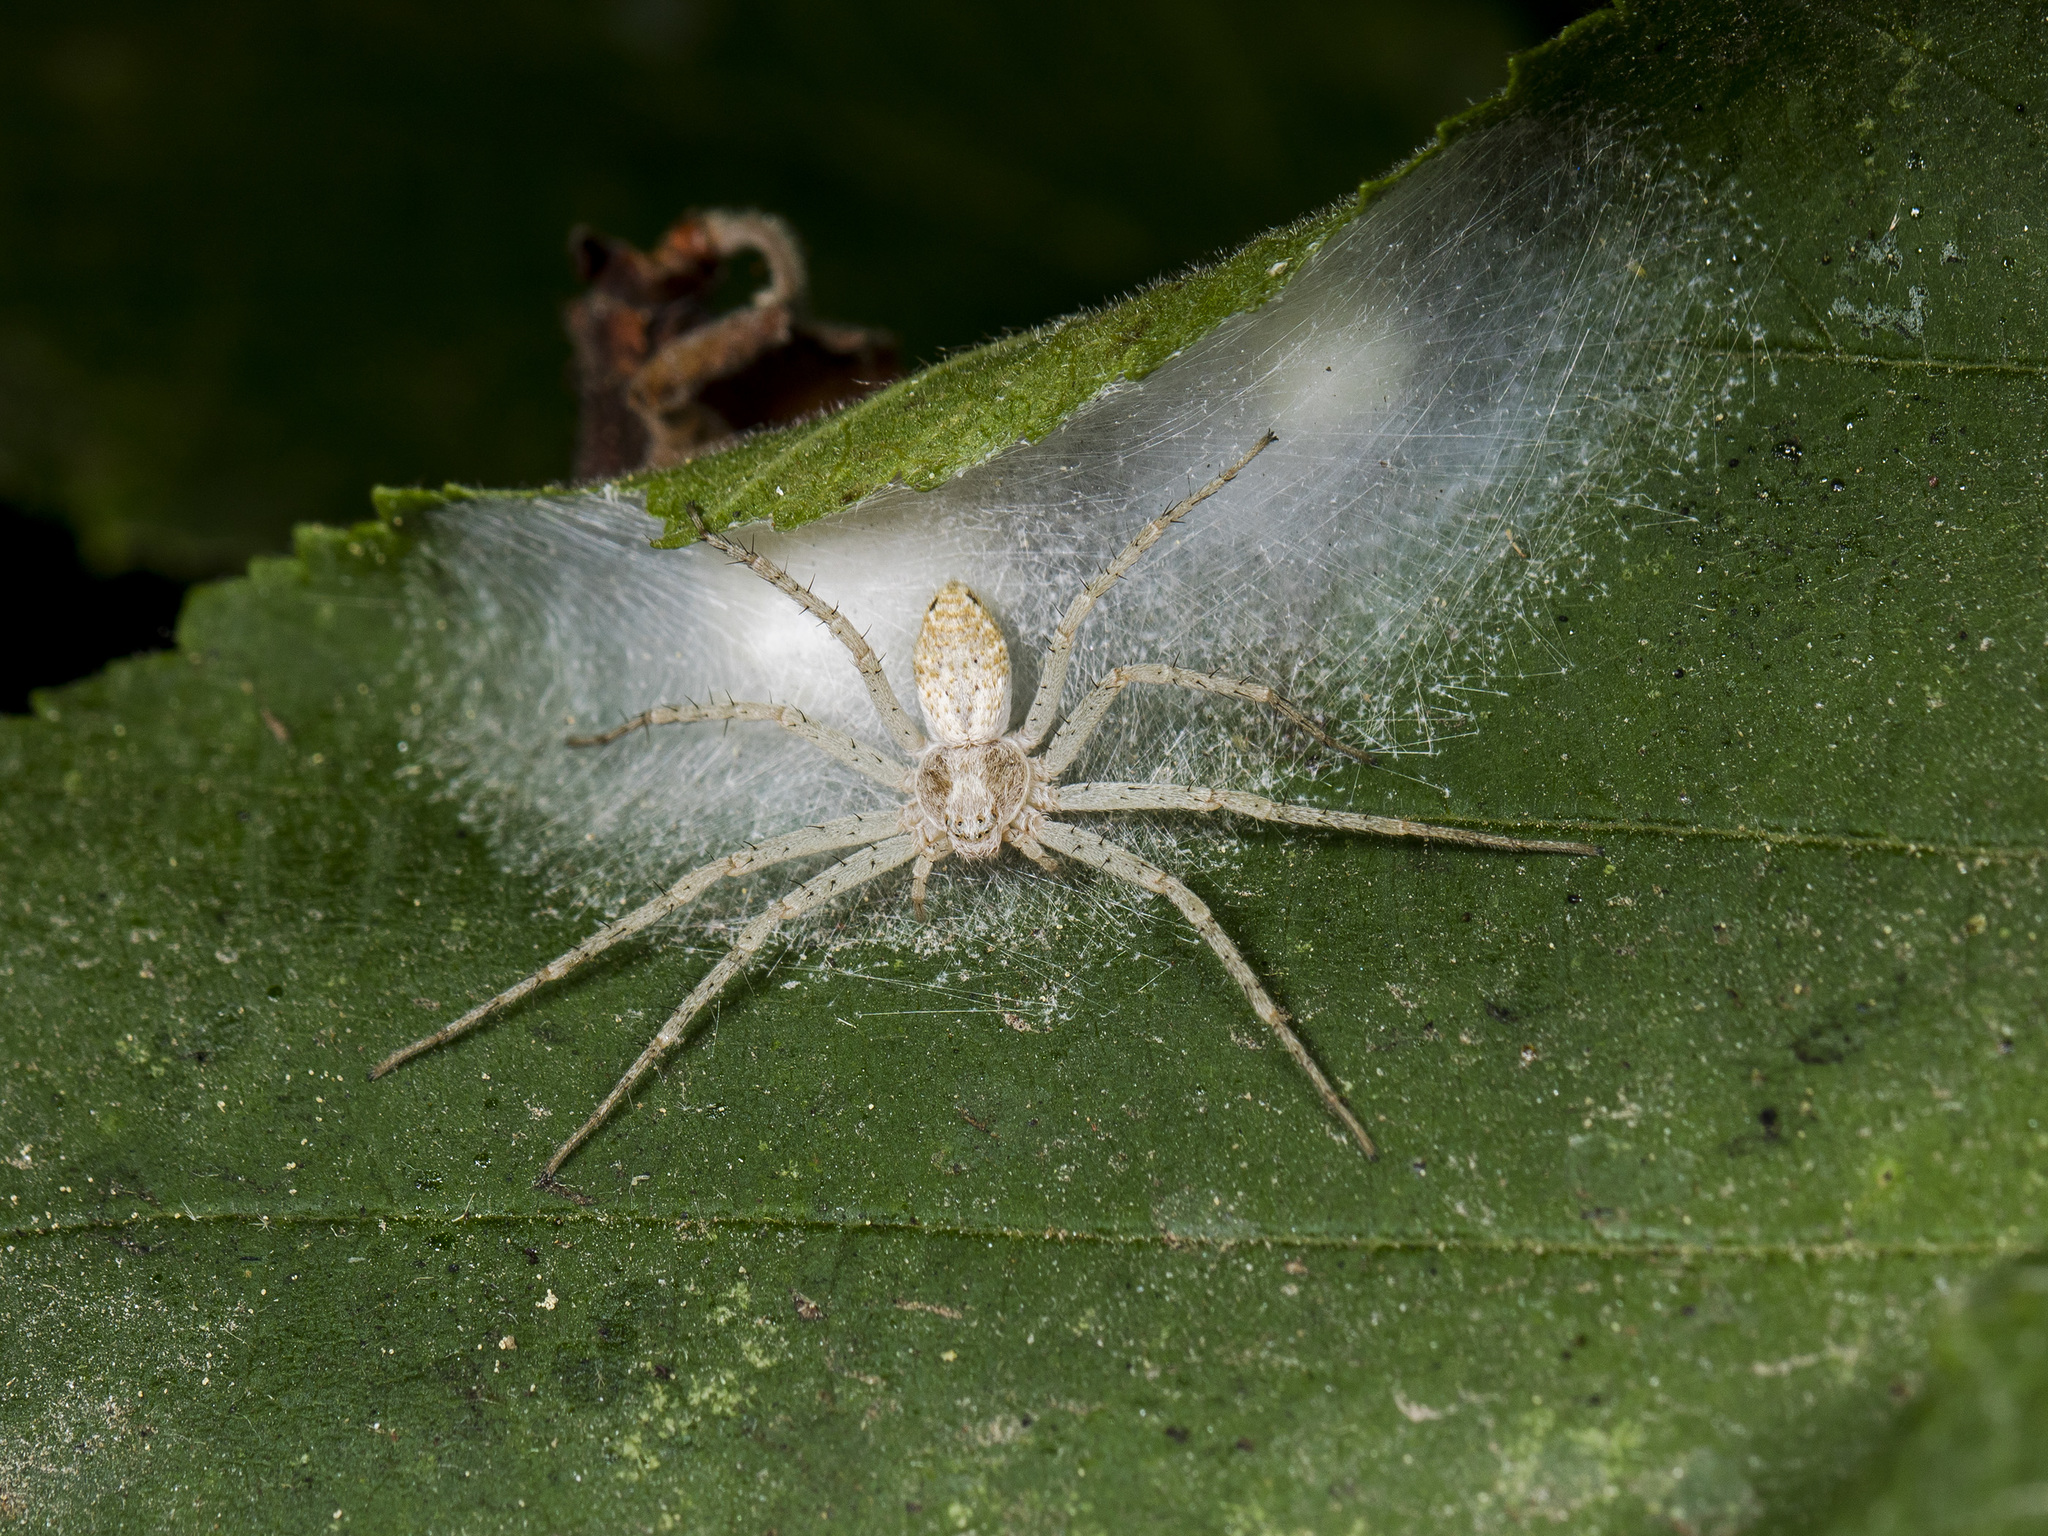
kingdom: Animalia
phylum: Arthropoda
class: Arachnida
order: Araneae
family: Philodromidae
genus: Philodromus
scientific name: Philodromus longipalpis
